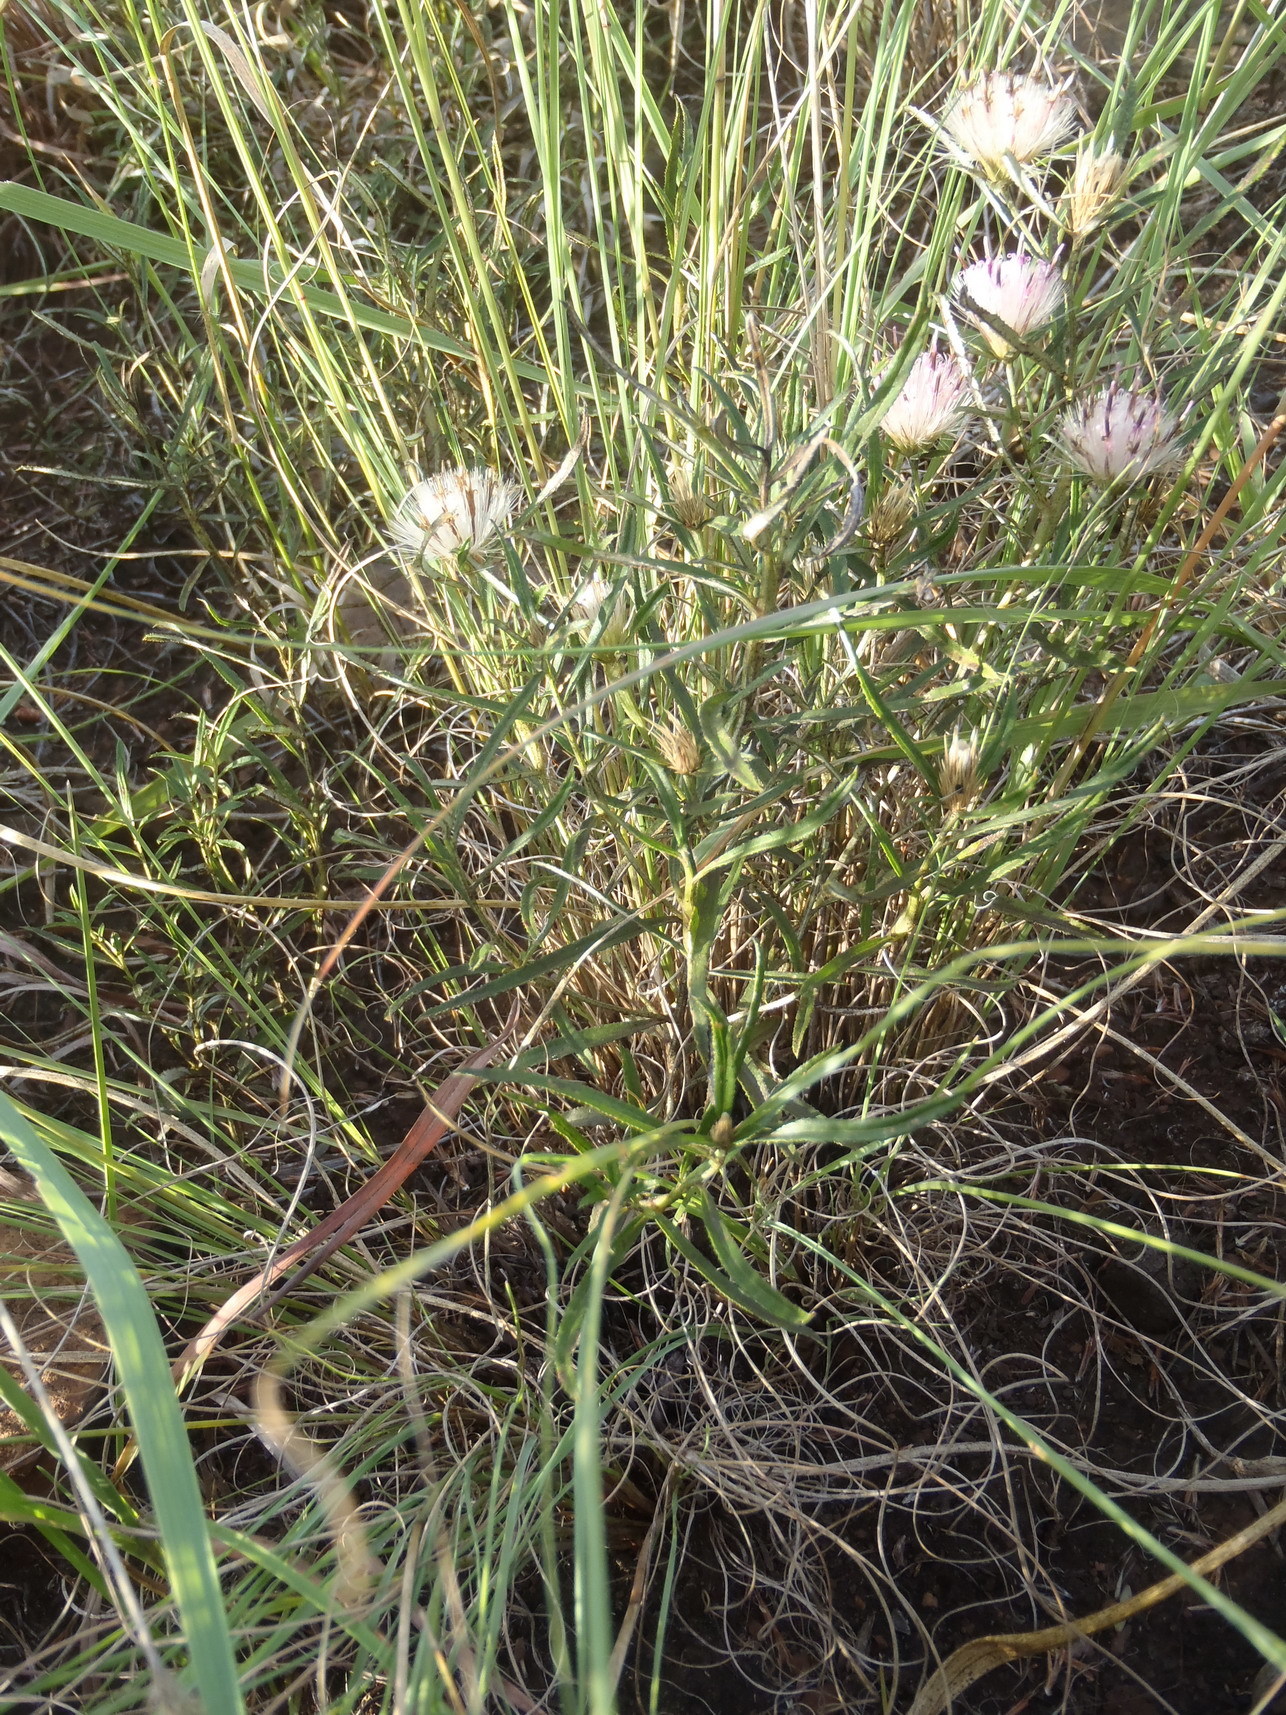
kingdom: Plantae
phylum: Tracheophyta
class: Magnoliopsida
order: Asterales
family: Asteraceae
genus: Dicoma
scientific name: Dicoma anomala
